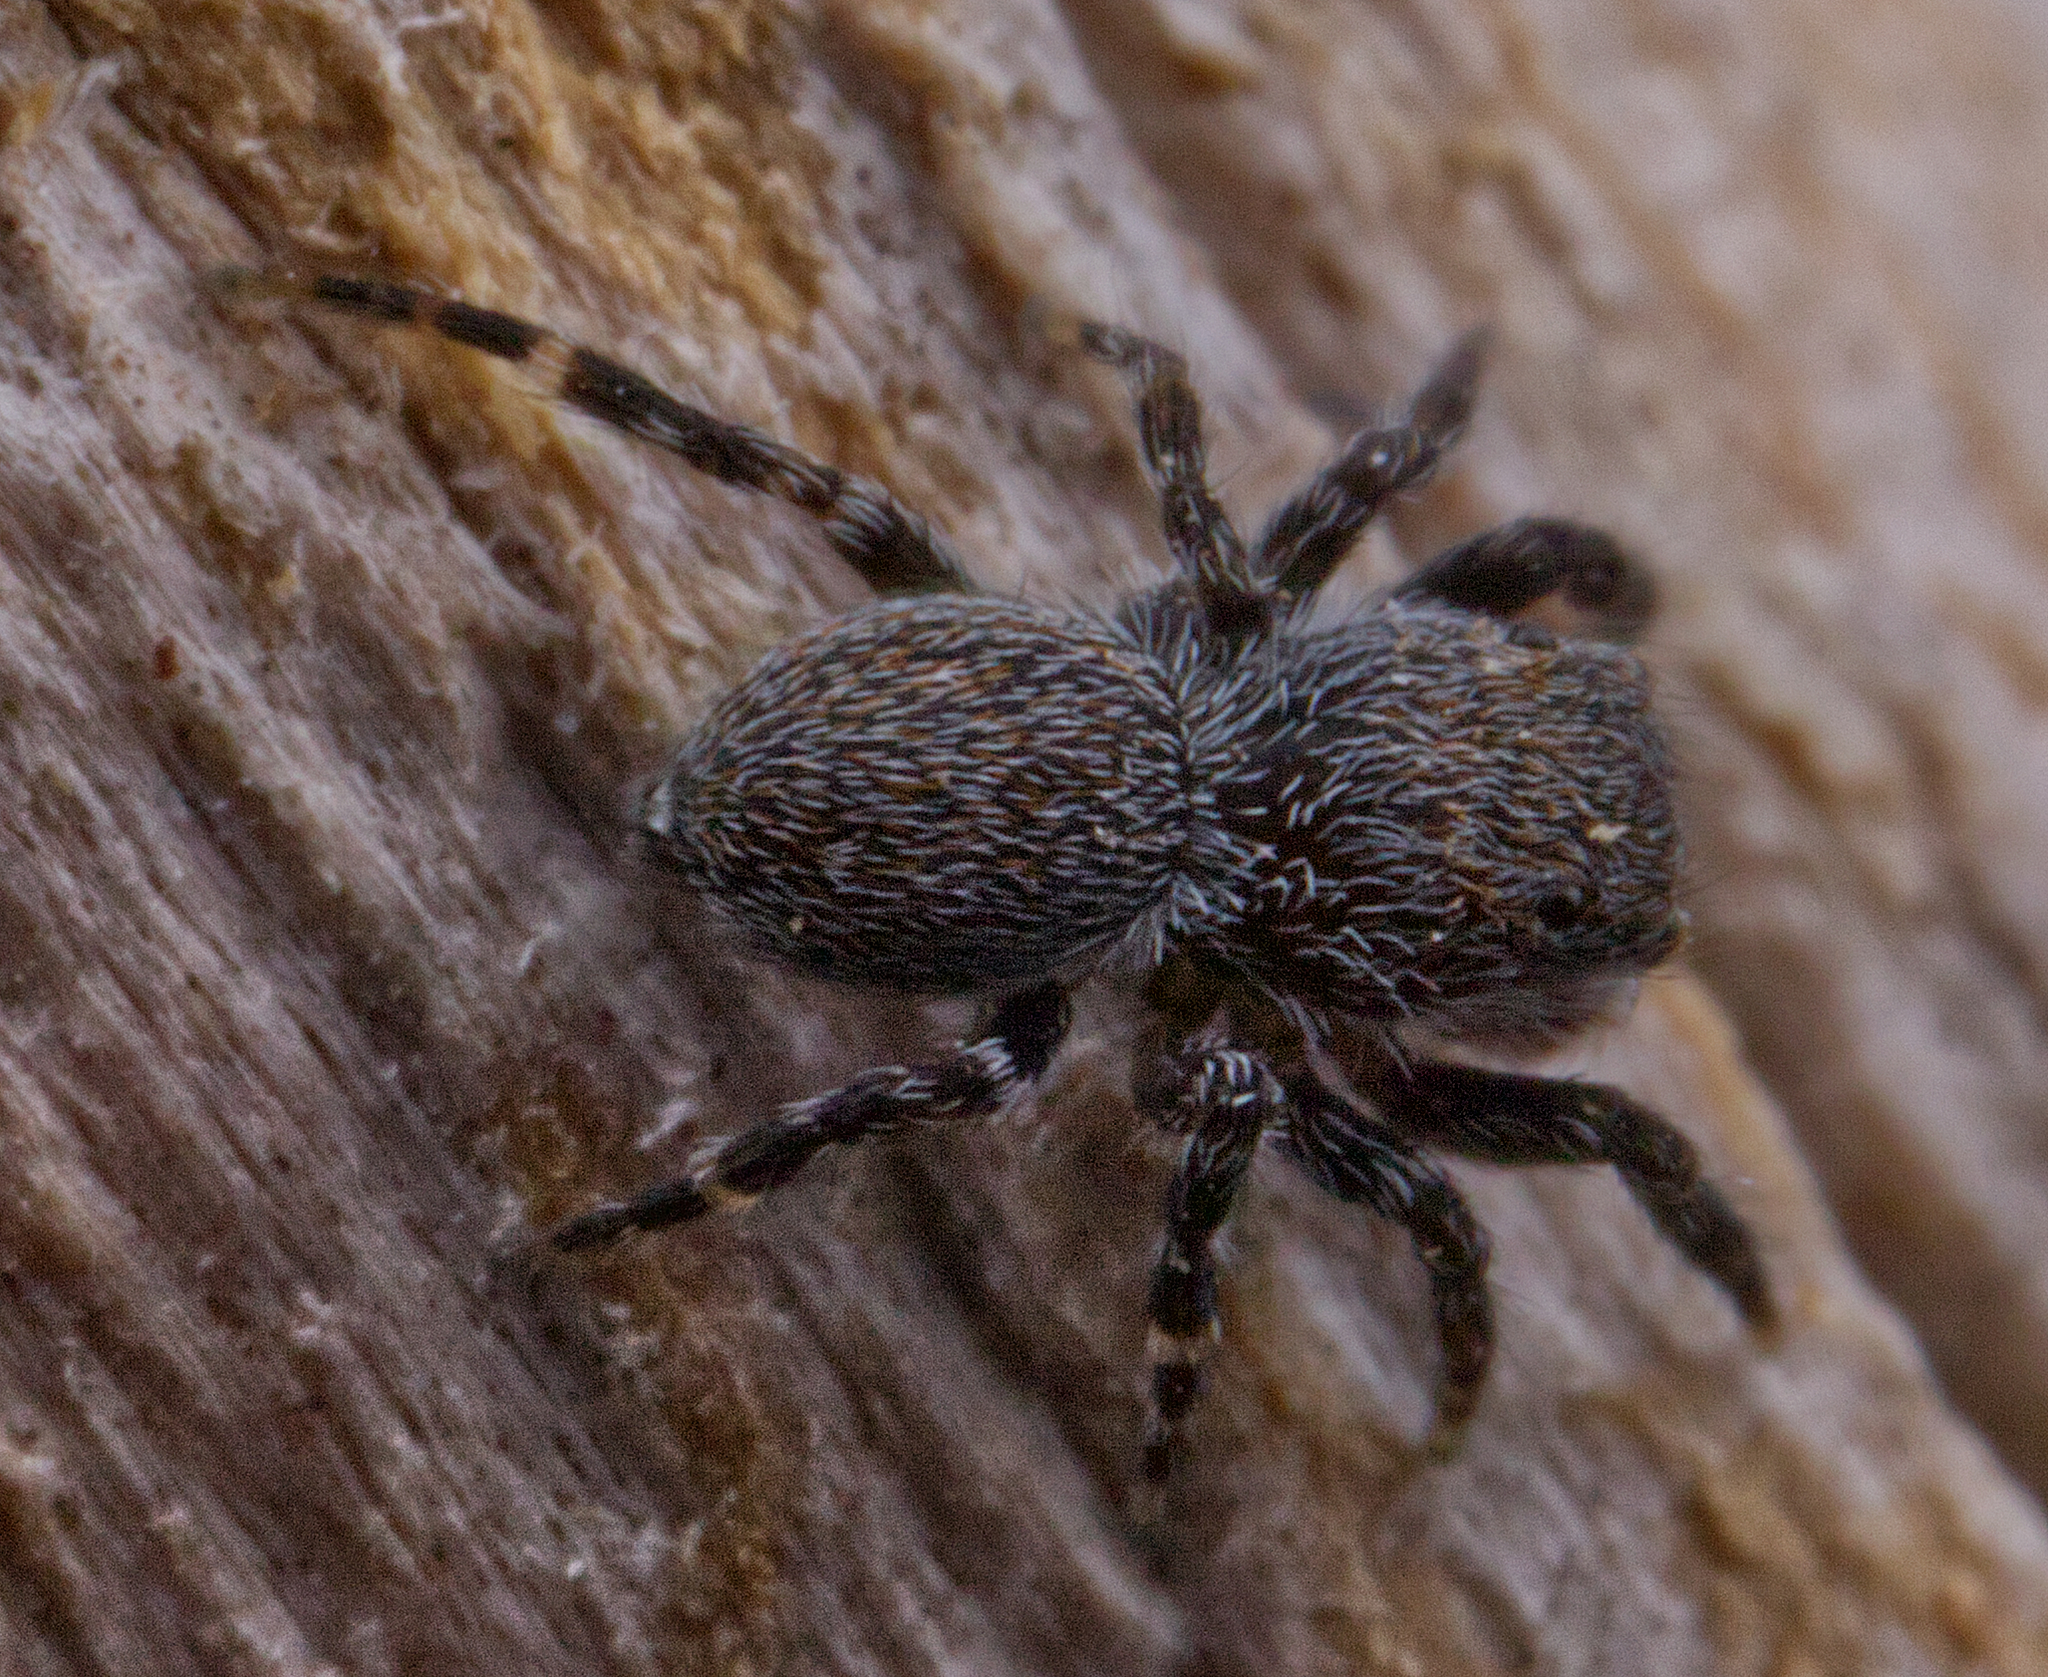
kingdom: Animalia
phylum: Arthropoda
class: Arachnida
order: Araneae
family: Salticidae
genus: Talavera
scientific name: Talavera minuta
